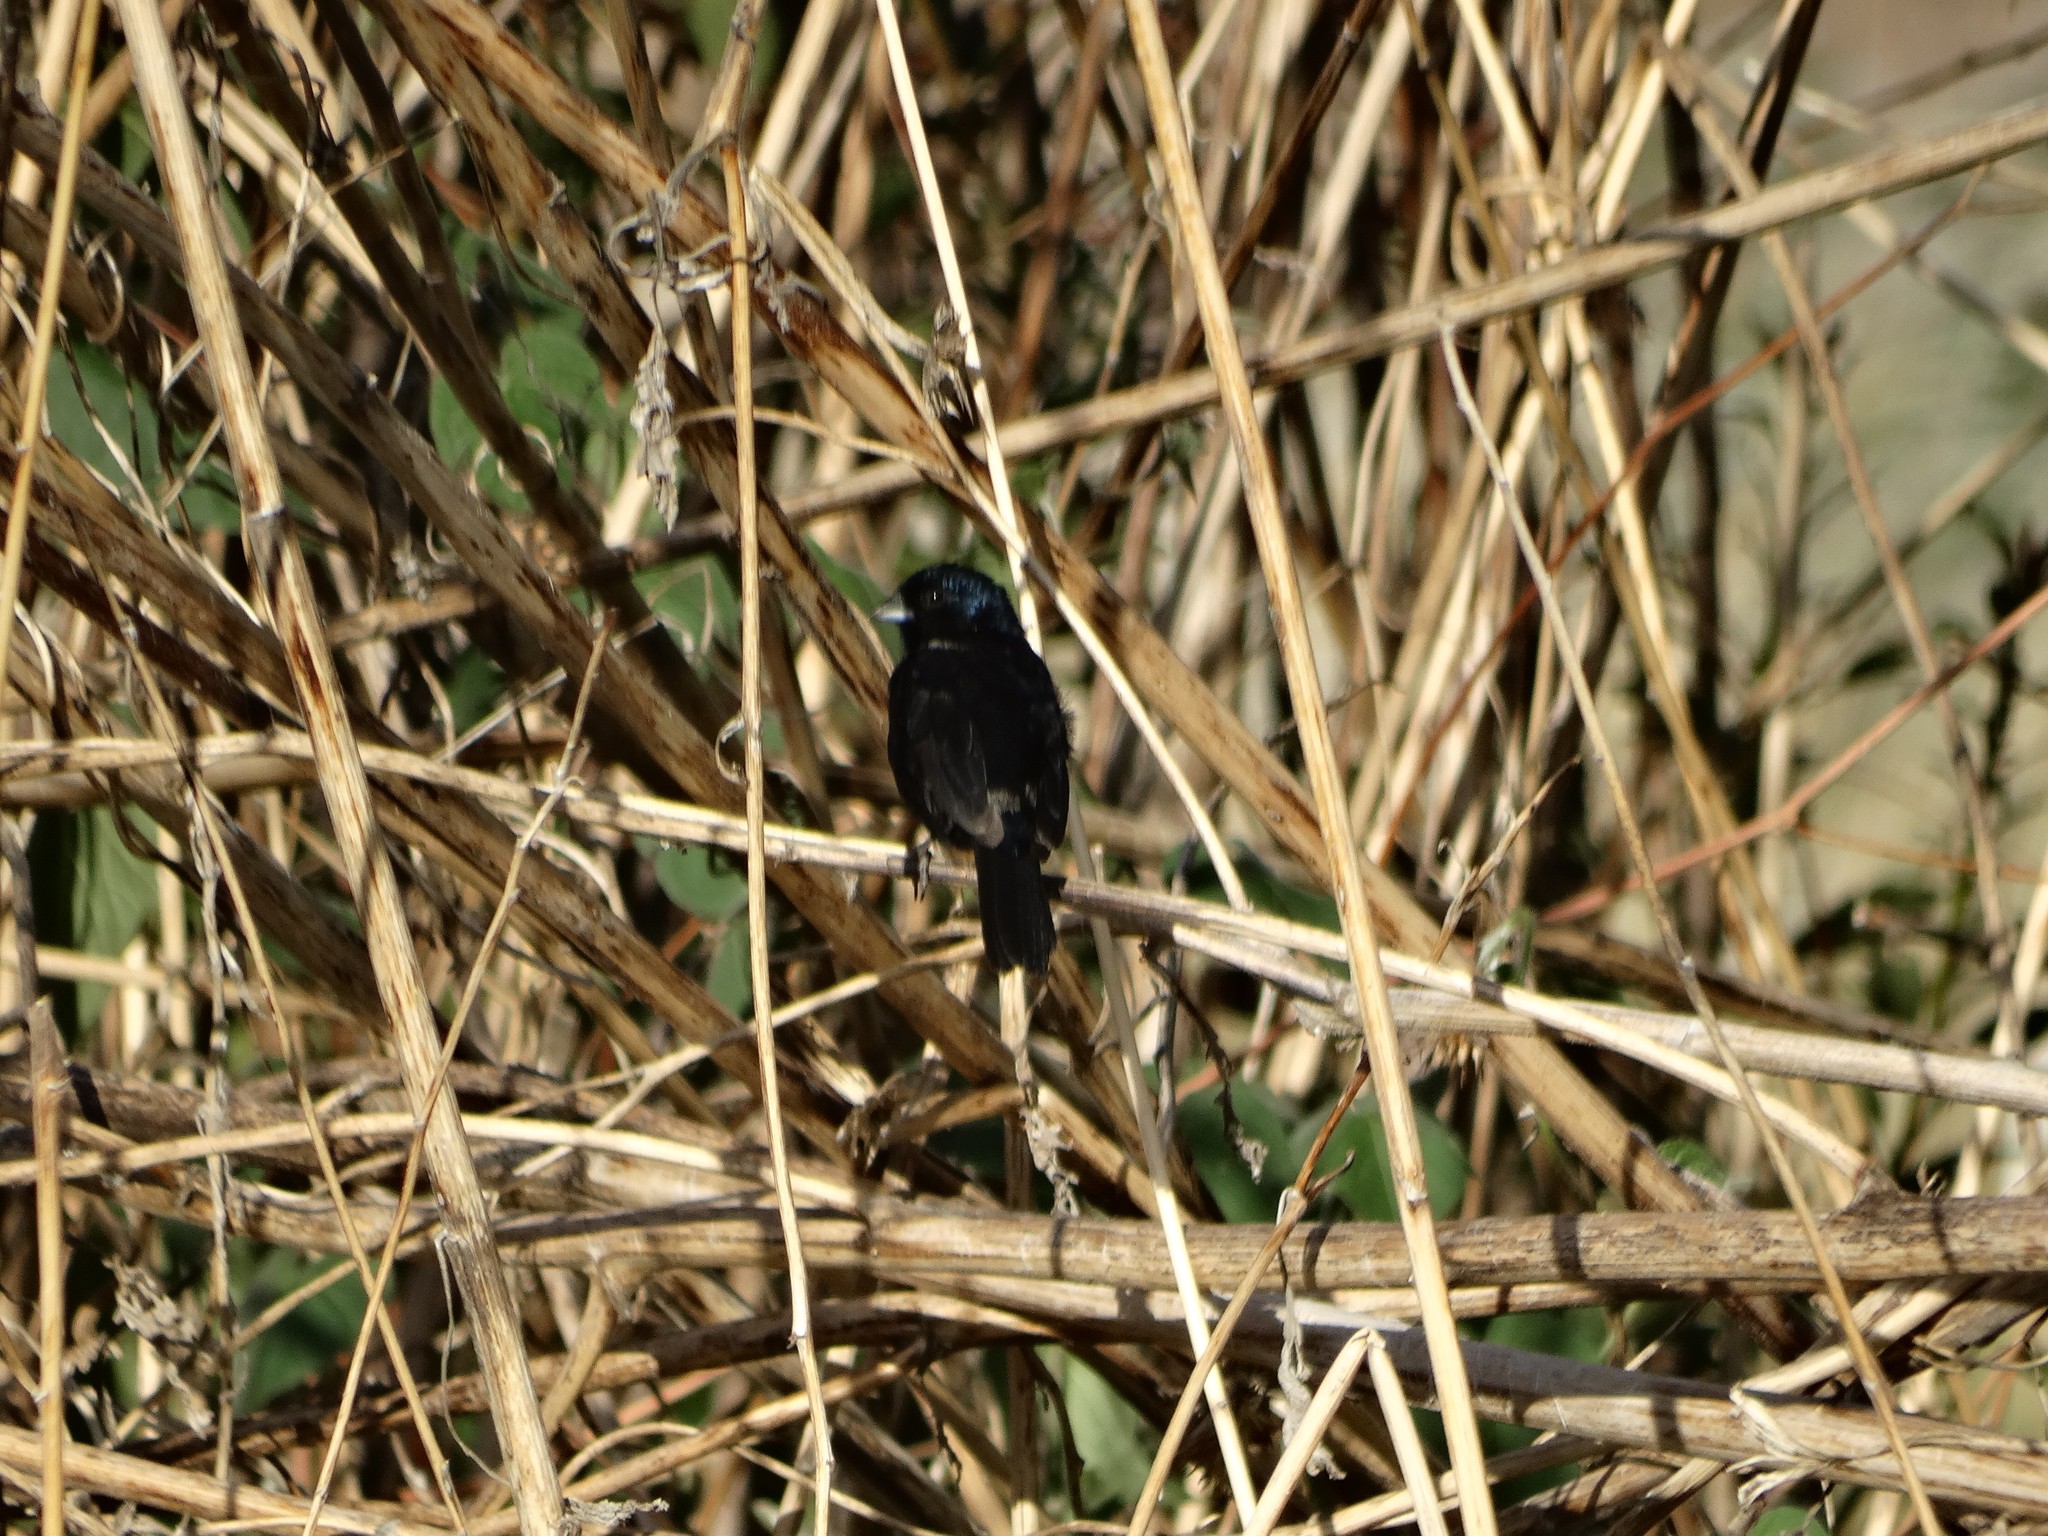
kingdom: Animalia
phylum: Chordata
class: Aves
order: Passeriformes
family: Thraupidae
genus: Volatinia
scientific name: Volatinia jacarina
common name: Blue-black grassquit
